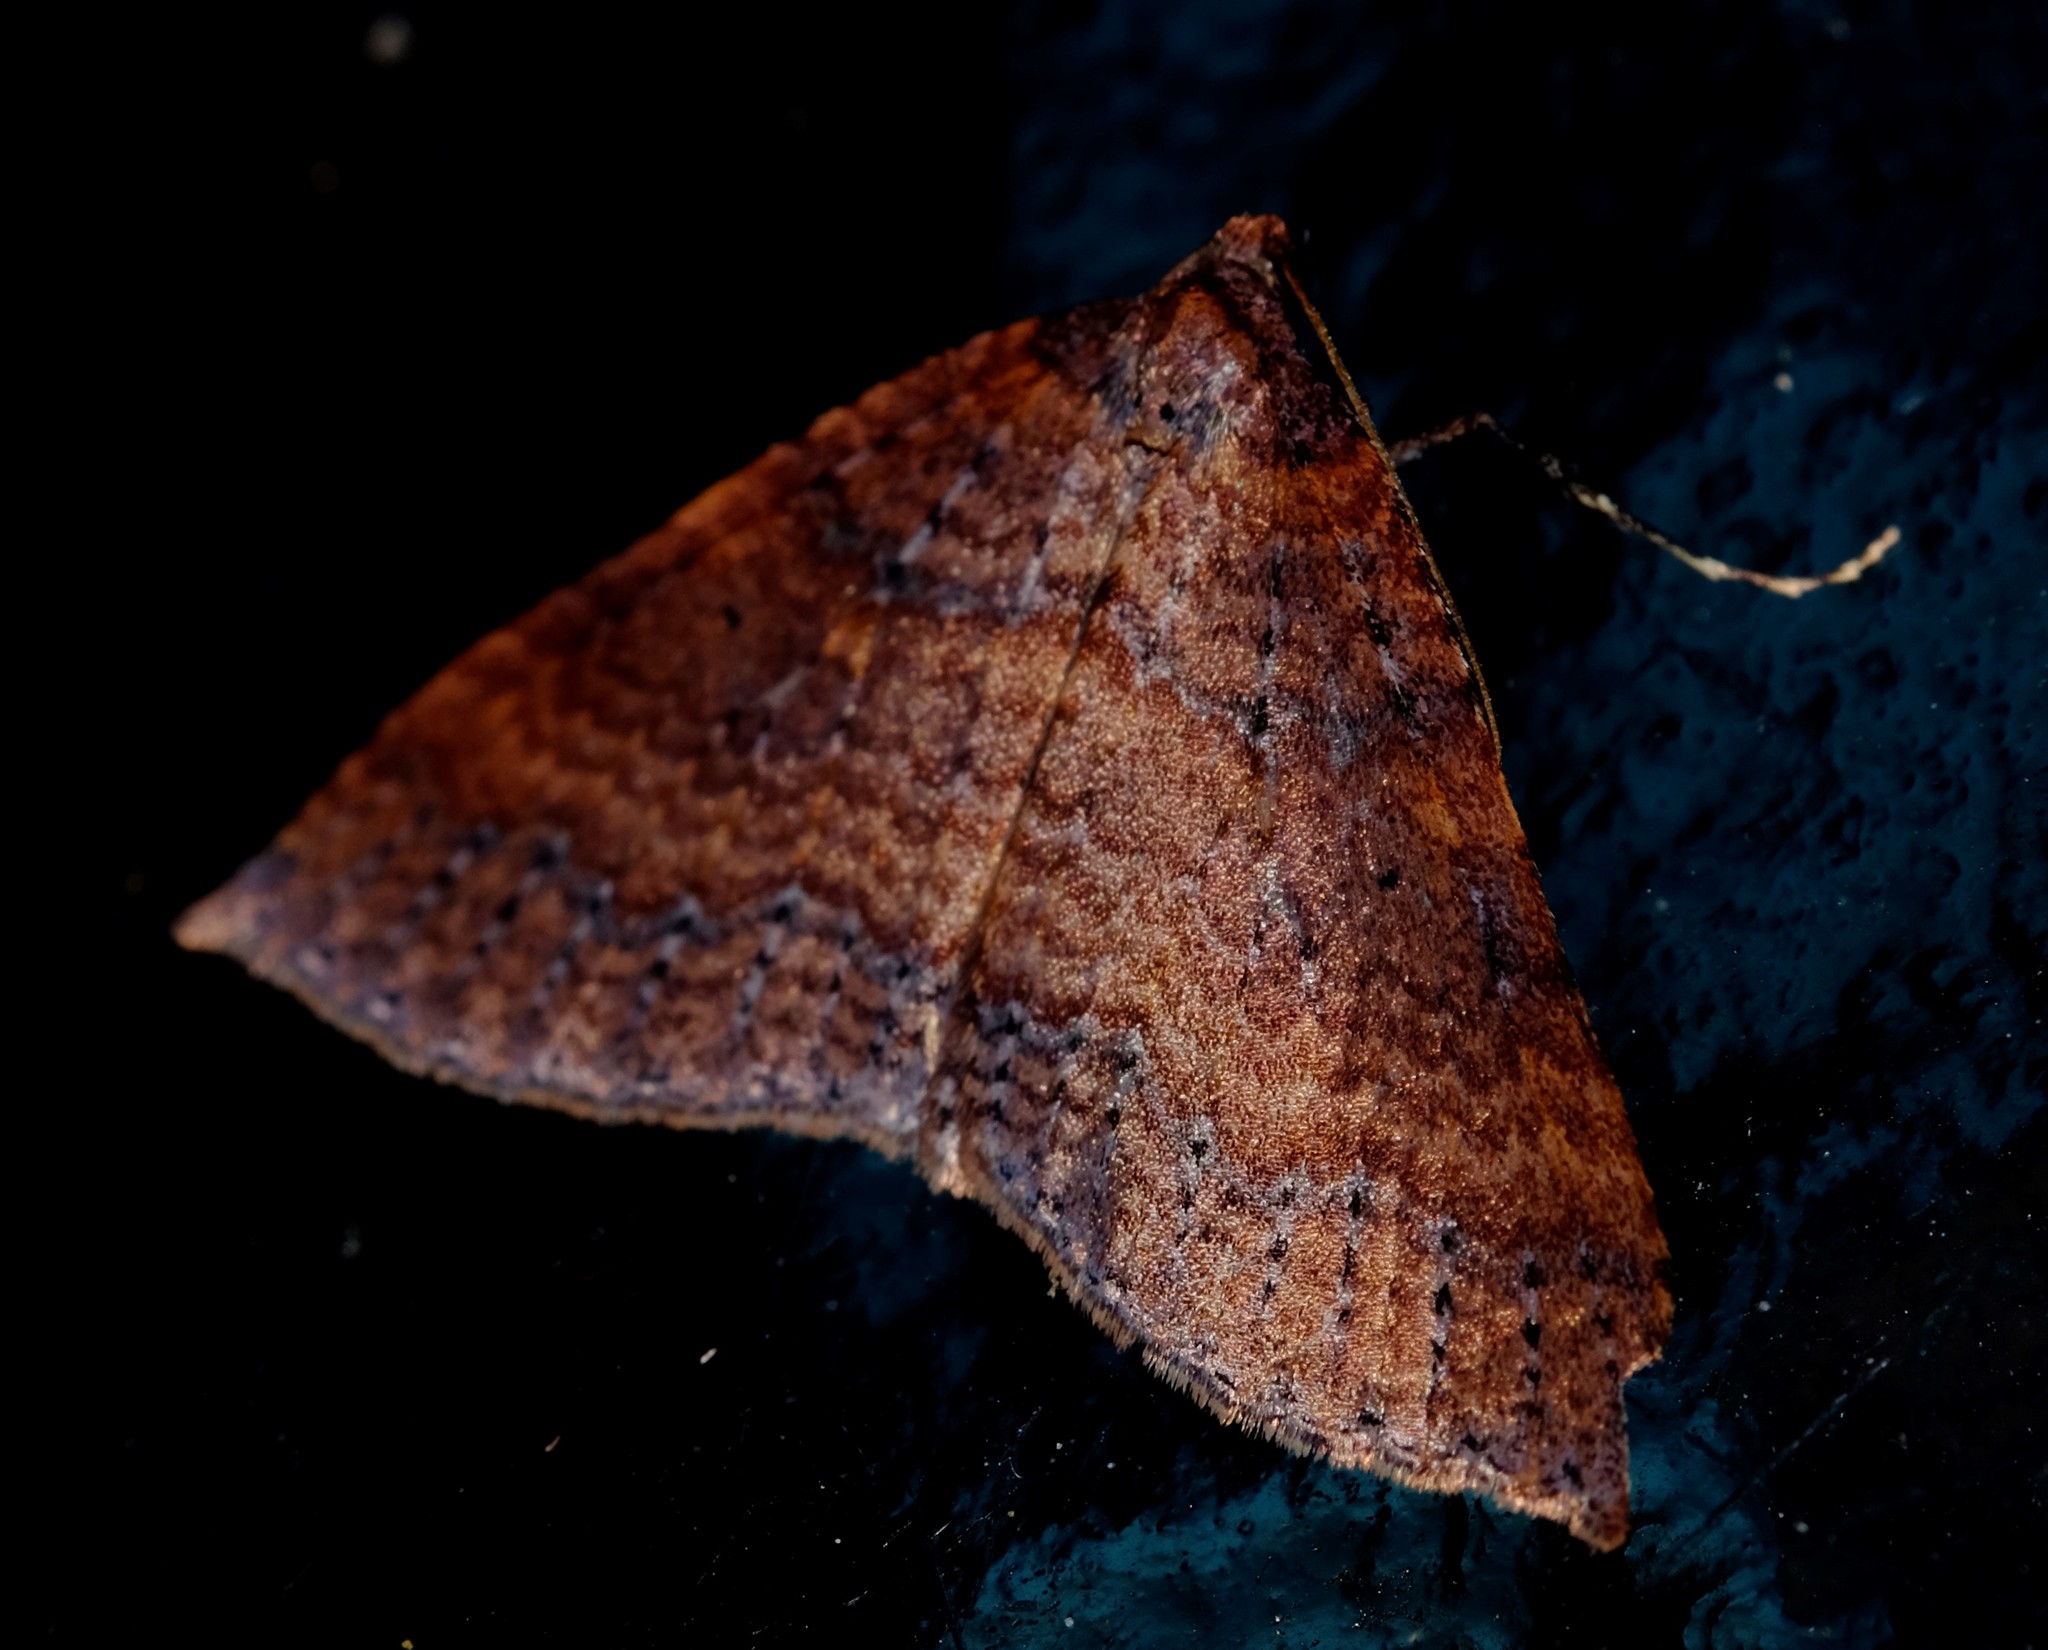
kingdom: Animalia
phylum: Arthropoda
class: Insecta
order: Lepidoptera
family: Geometridae
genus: Larentia
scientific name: Larentia apotoma
